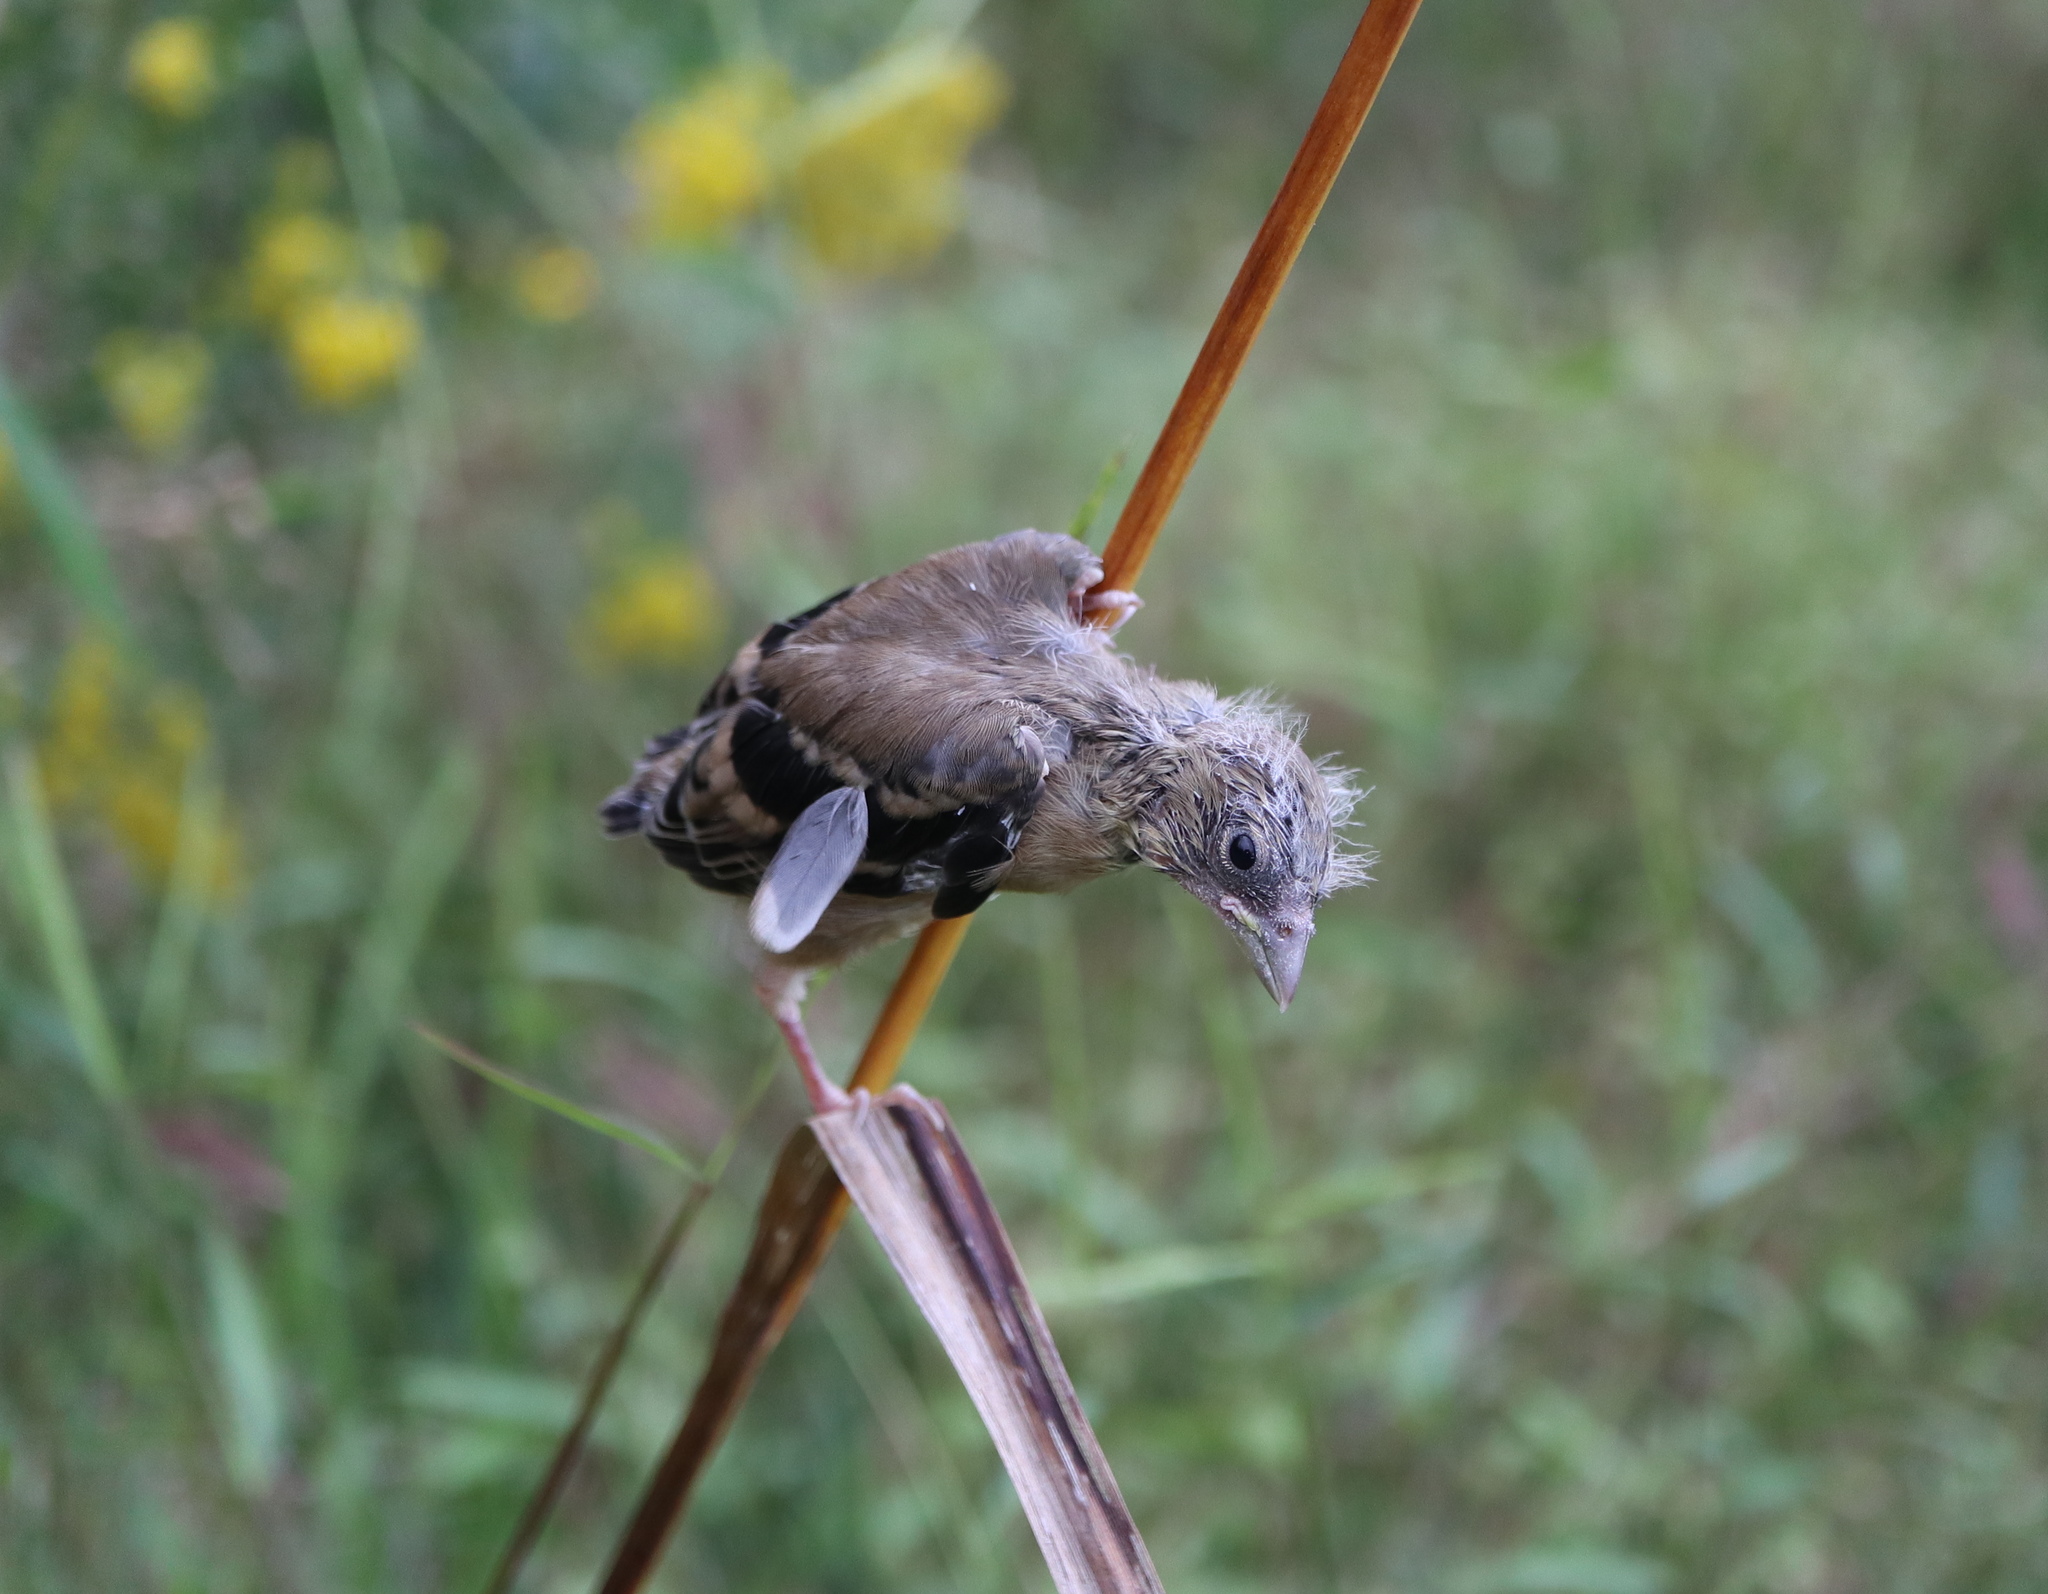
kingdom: Animalia
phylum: Chordata
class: Aves
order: Passeriformes
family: Fringillidae
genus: Spinus
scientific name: Spinus tristis
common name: American goldfinch
